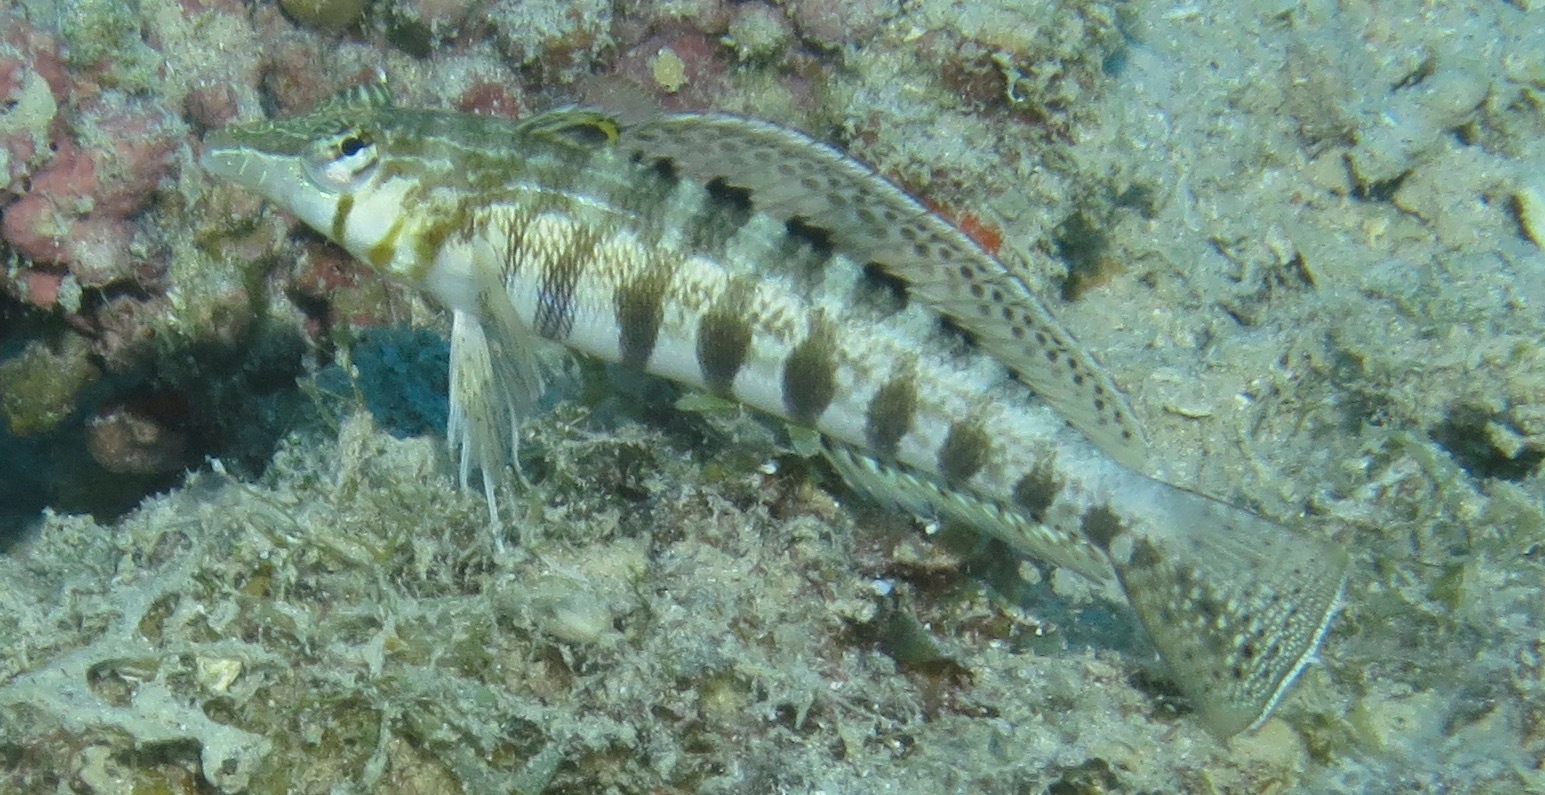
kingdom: Animalia
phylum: Chordata
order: Perciformes
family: Pinguipedidae
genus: Parapercis
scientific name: Parapercis australis
